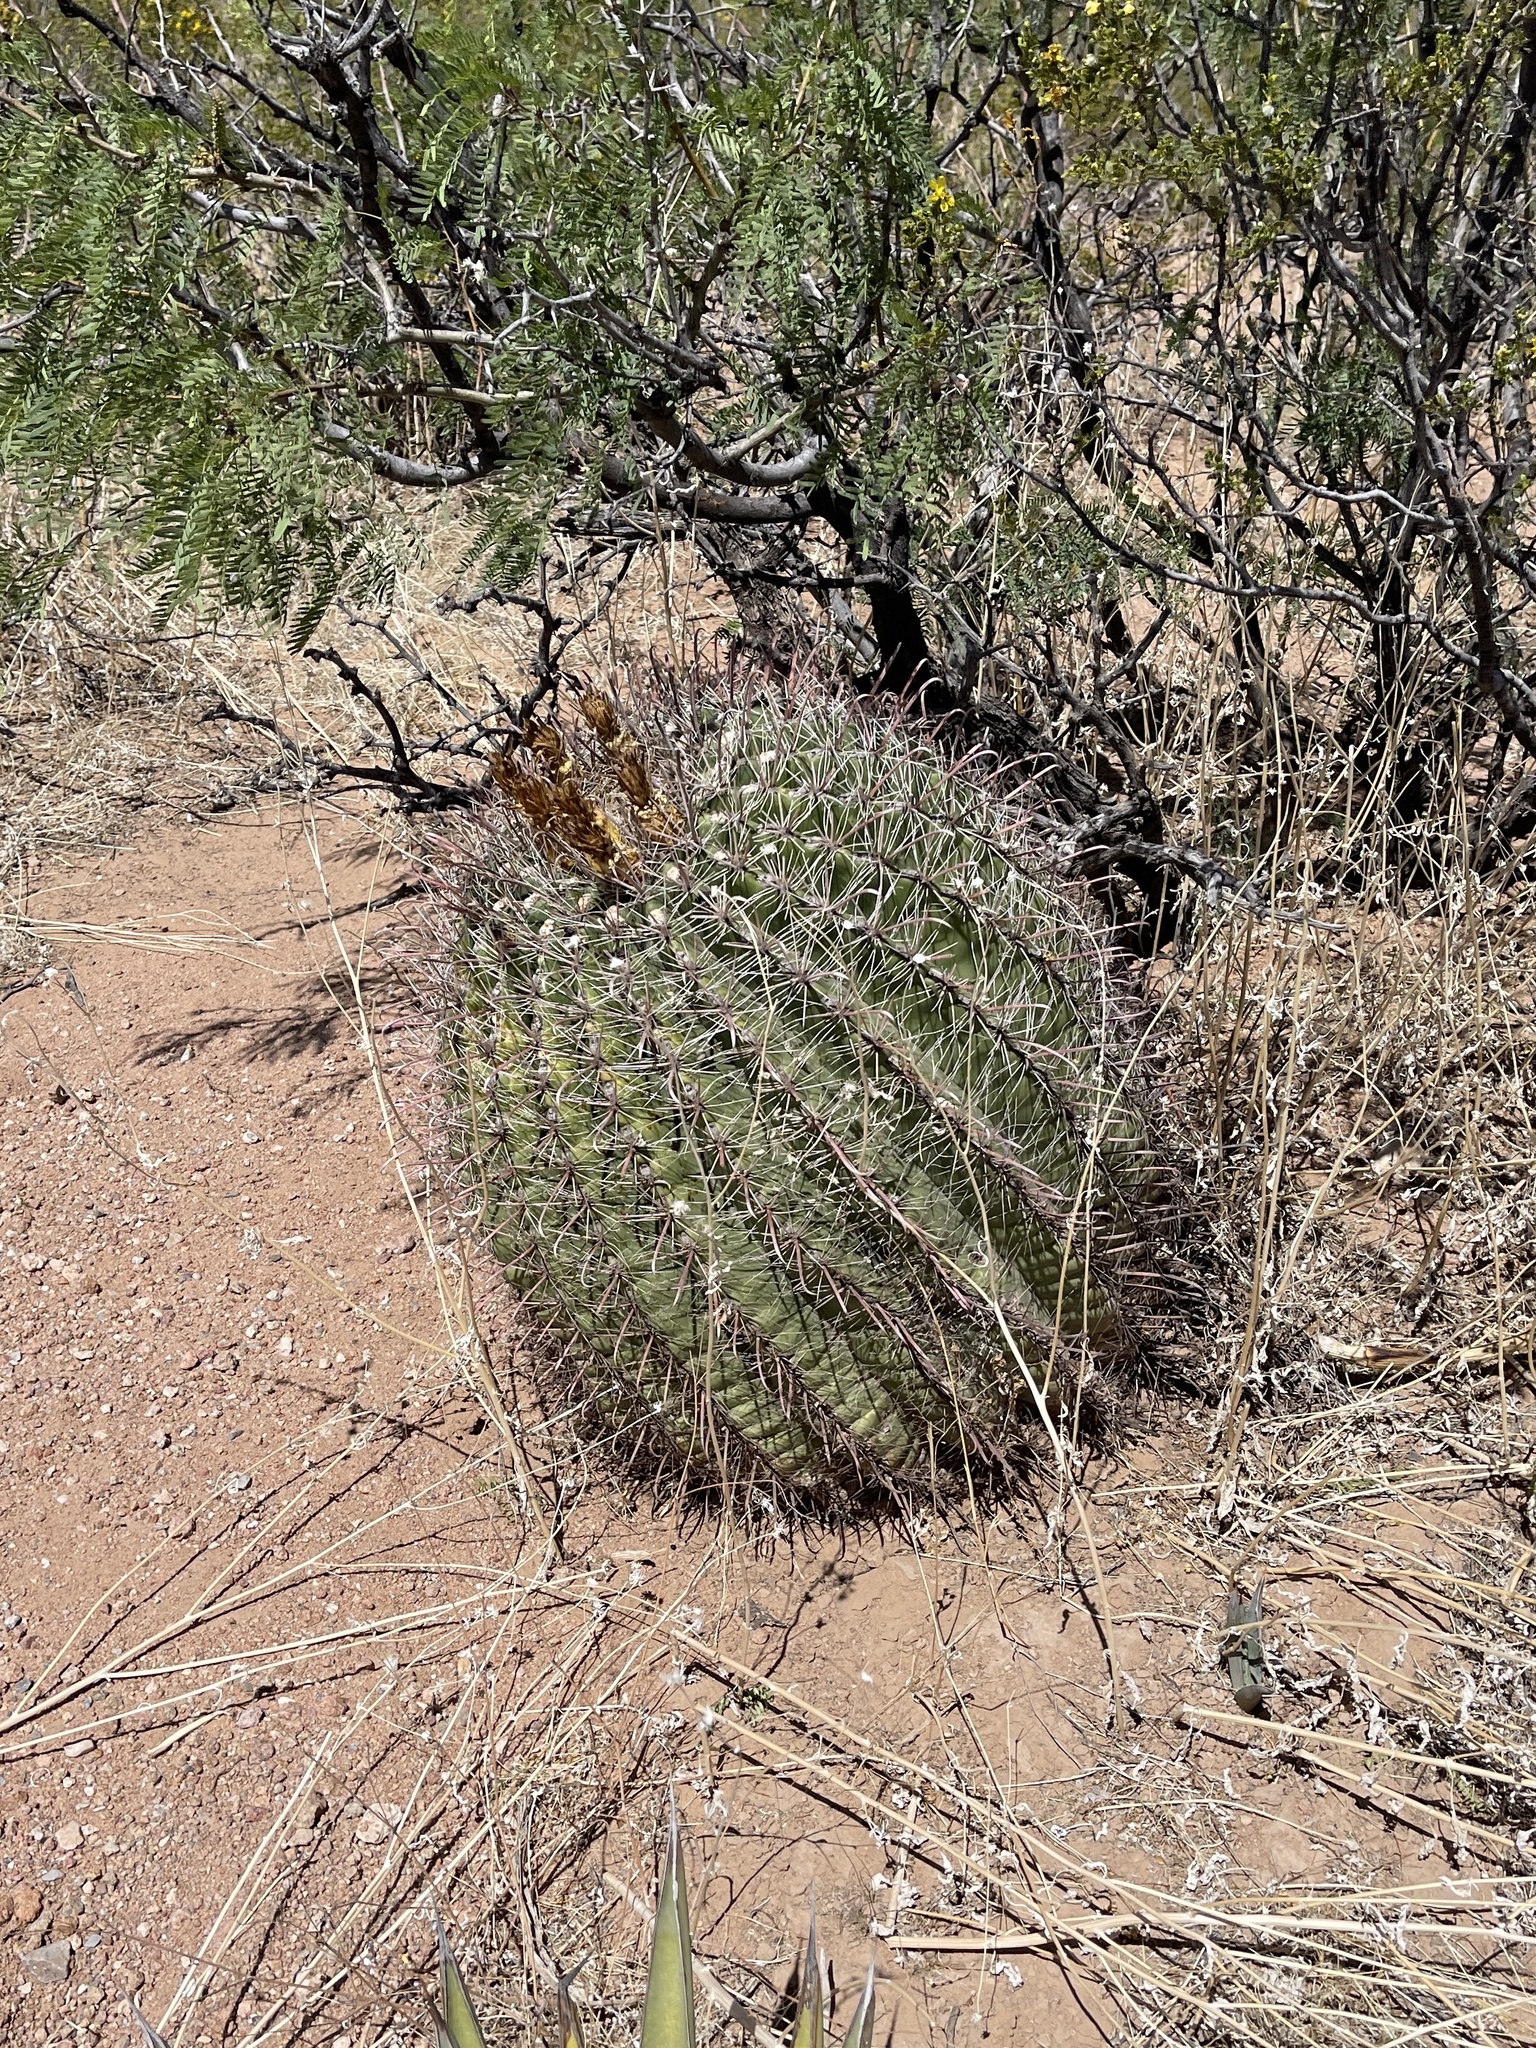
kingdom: Plantae
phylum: Tracheophyta
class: Magnoliopsida
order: Caryophyllales
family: Cactaceae
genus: Ferocactus
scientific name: Ferocactus wislizeni
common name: Candy barrel cactus
